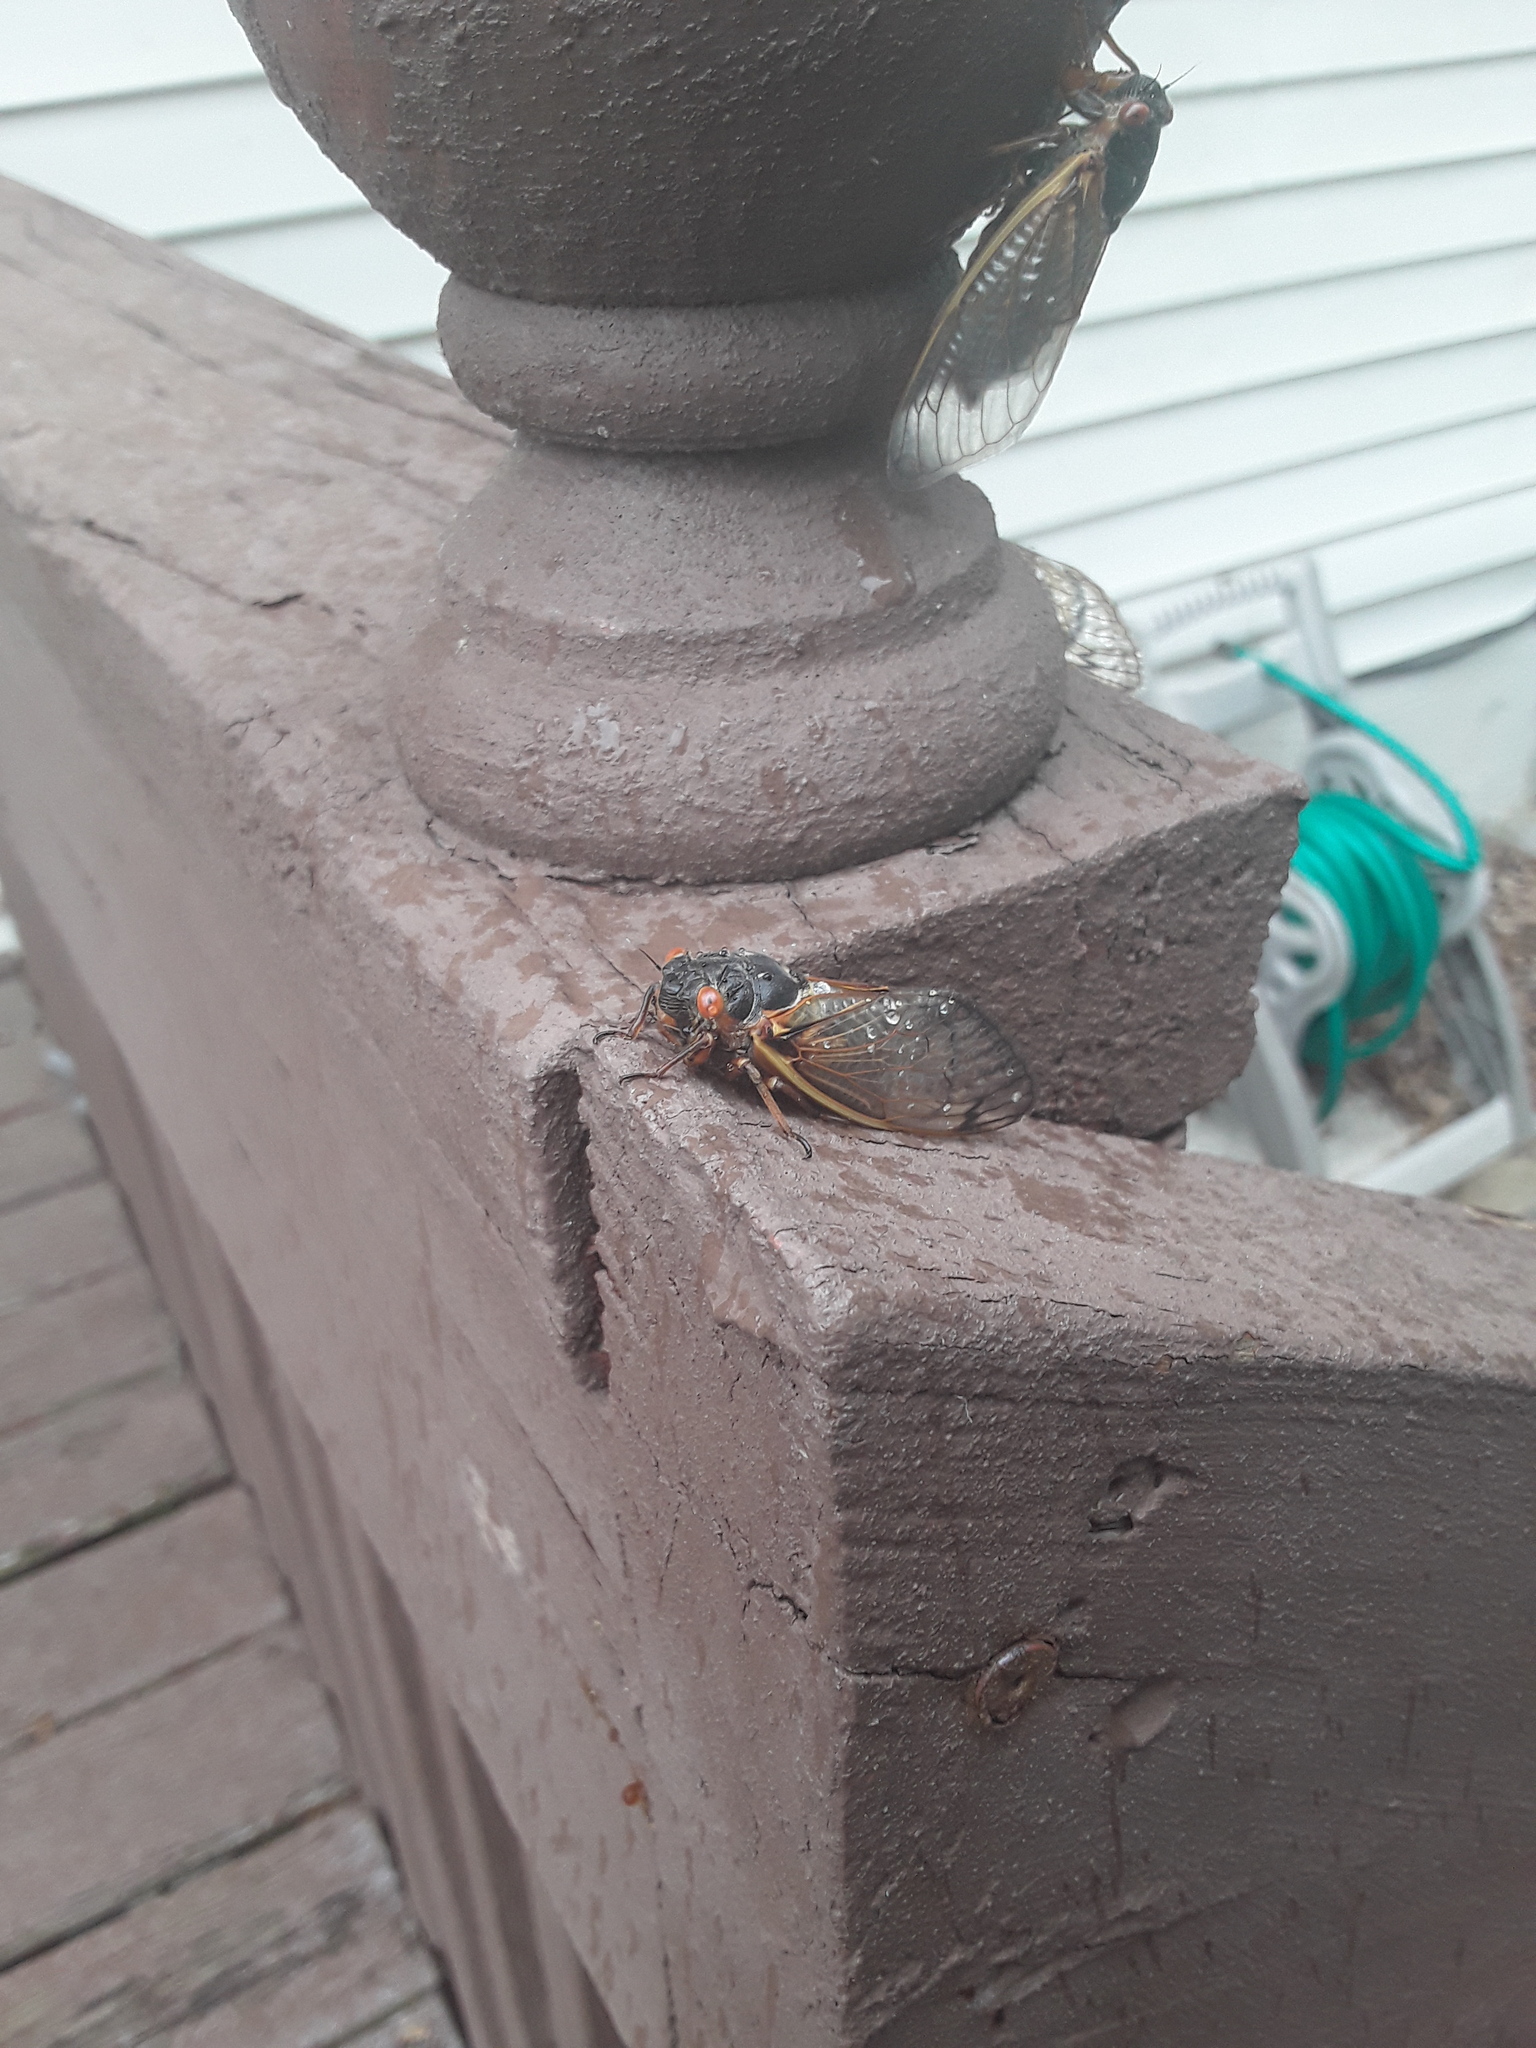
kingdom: Animalia
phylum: Arthropoda
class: Insecta
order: Hemiptera
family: Cicadidae
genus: Magicicada
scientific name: Magicicada septendecim
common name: Periodical cicada
